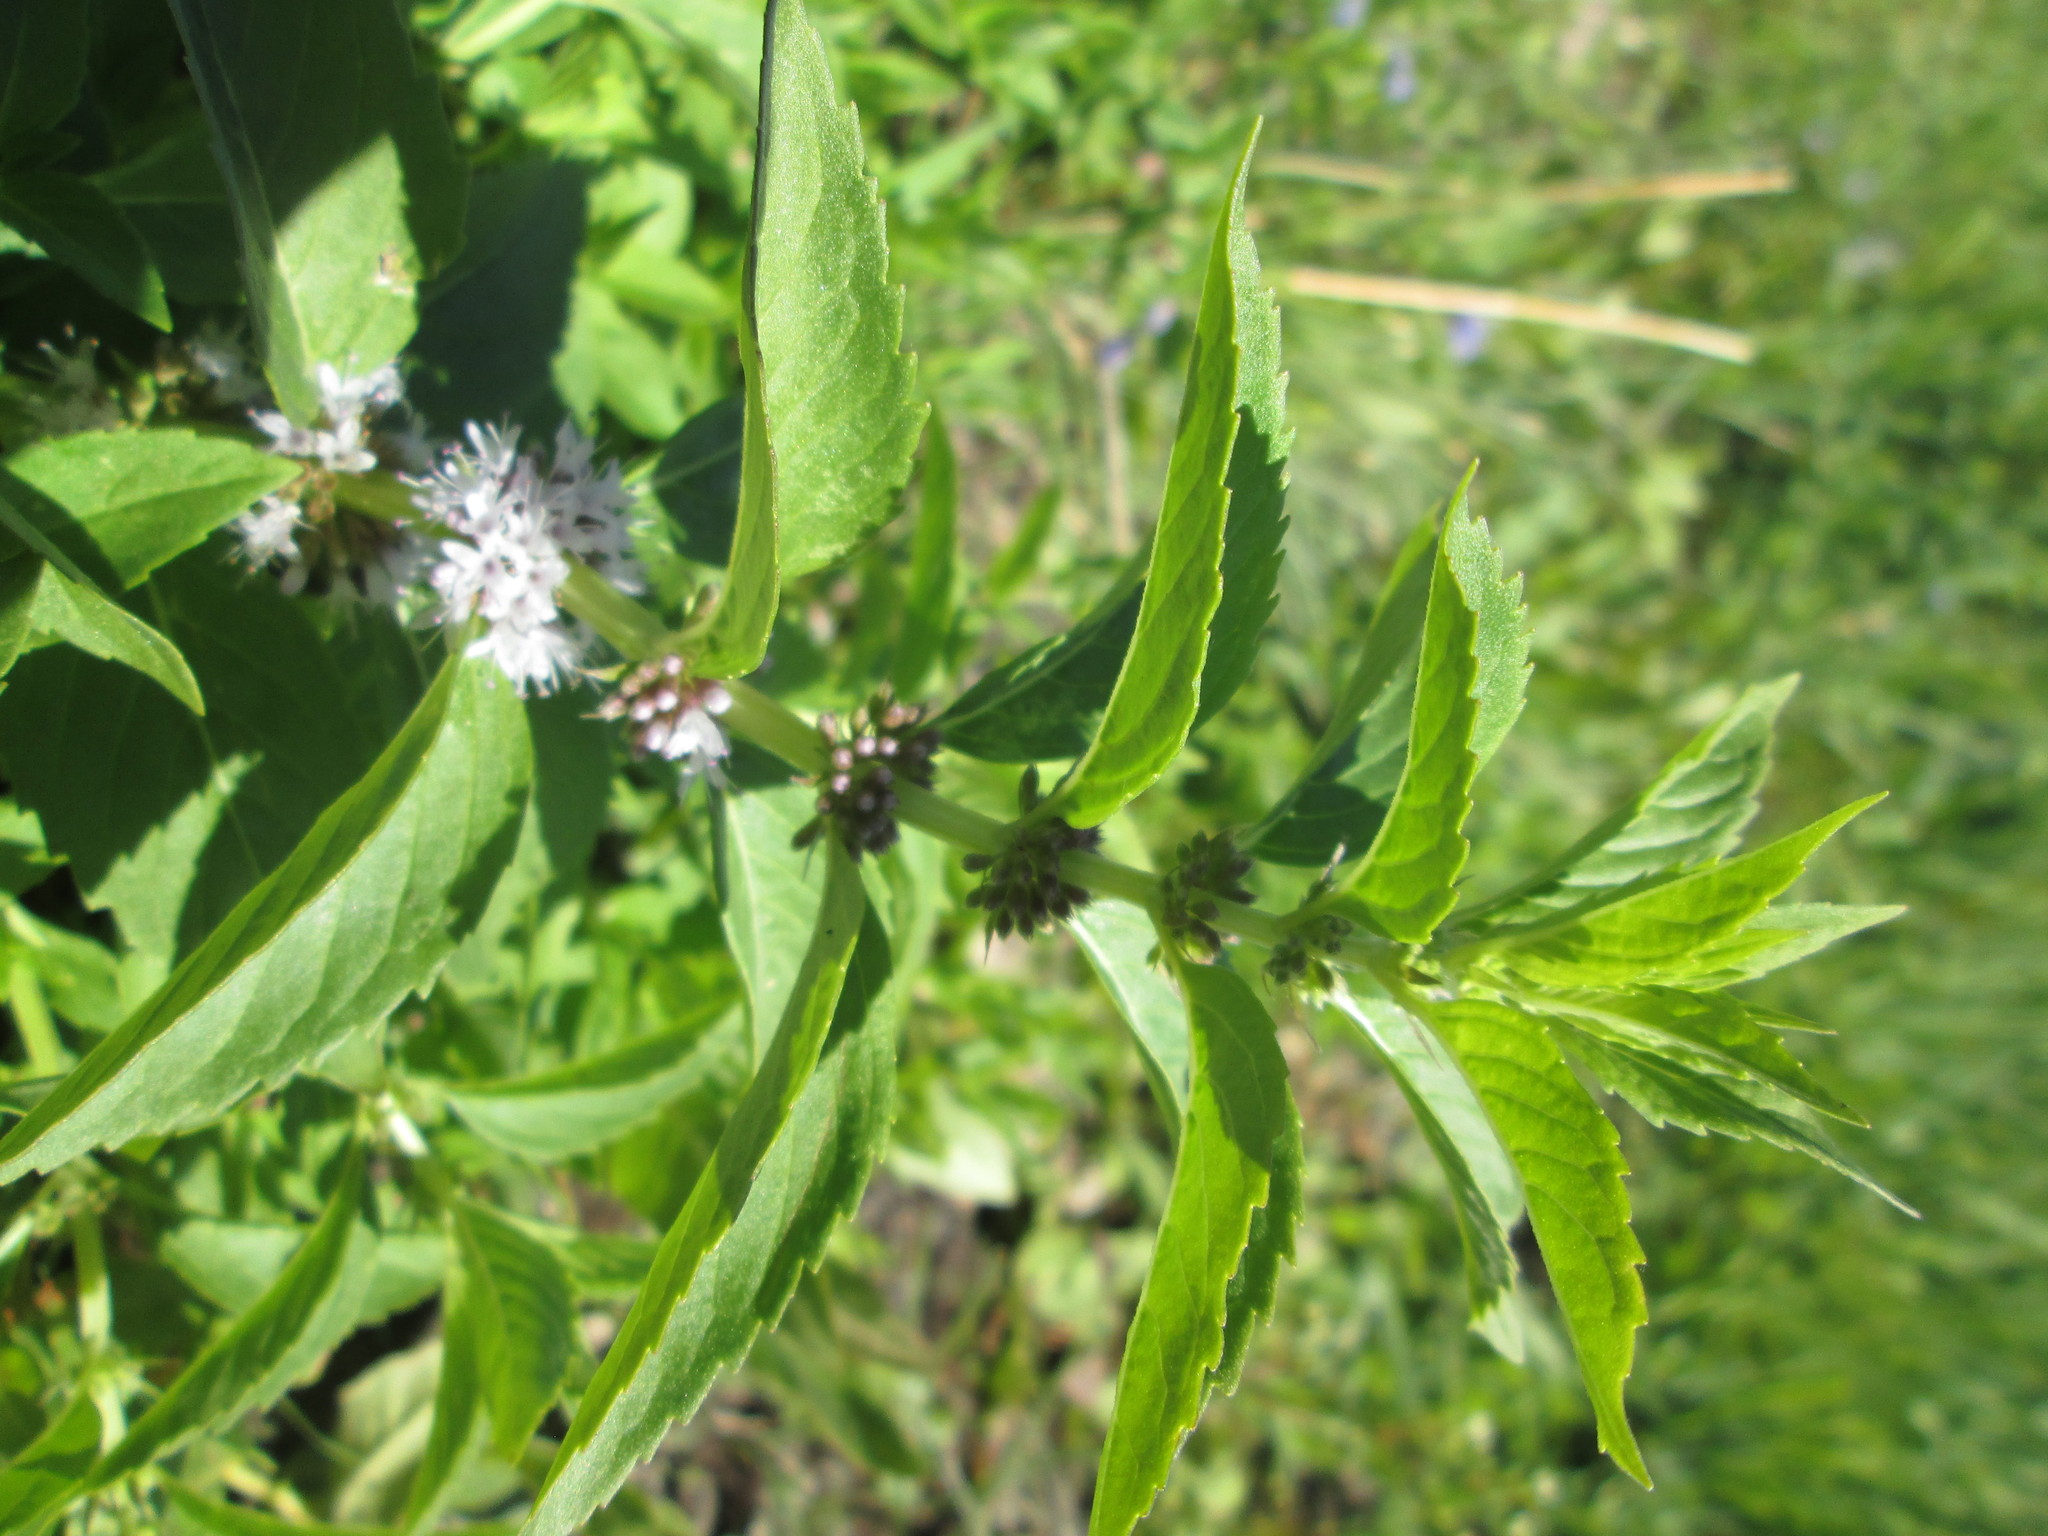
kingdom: Plantae
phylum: Tracheophyta
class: Magnoliopsida
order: Lamiales
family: Lamiaceae
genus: Mentha
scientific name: Mentha arvensis
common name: Corn mint
